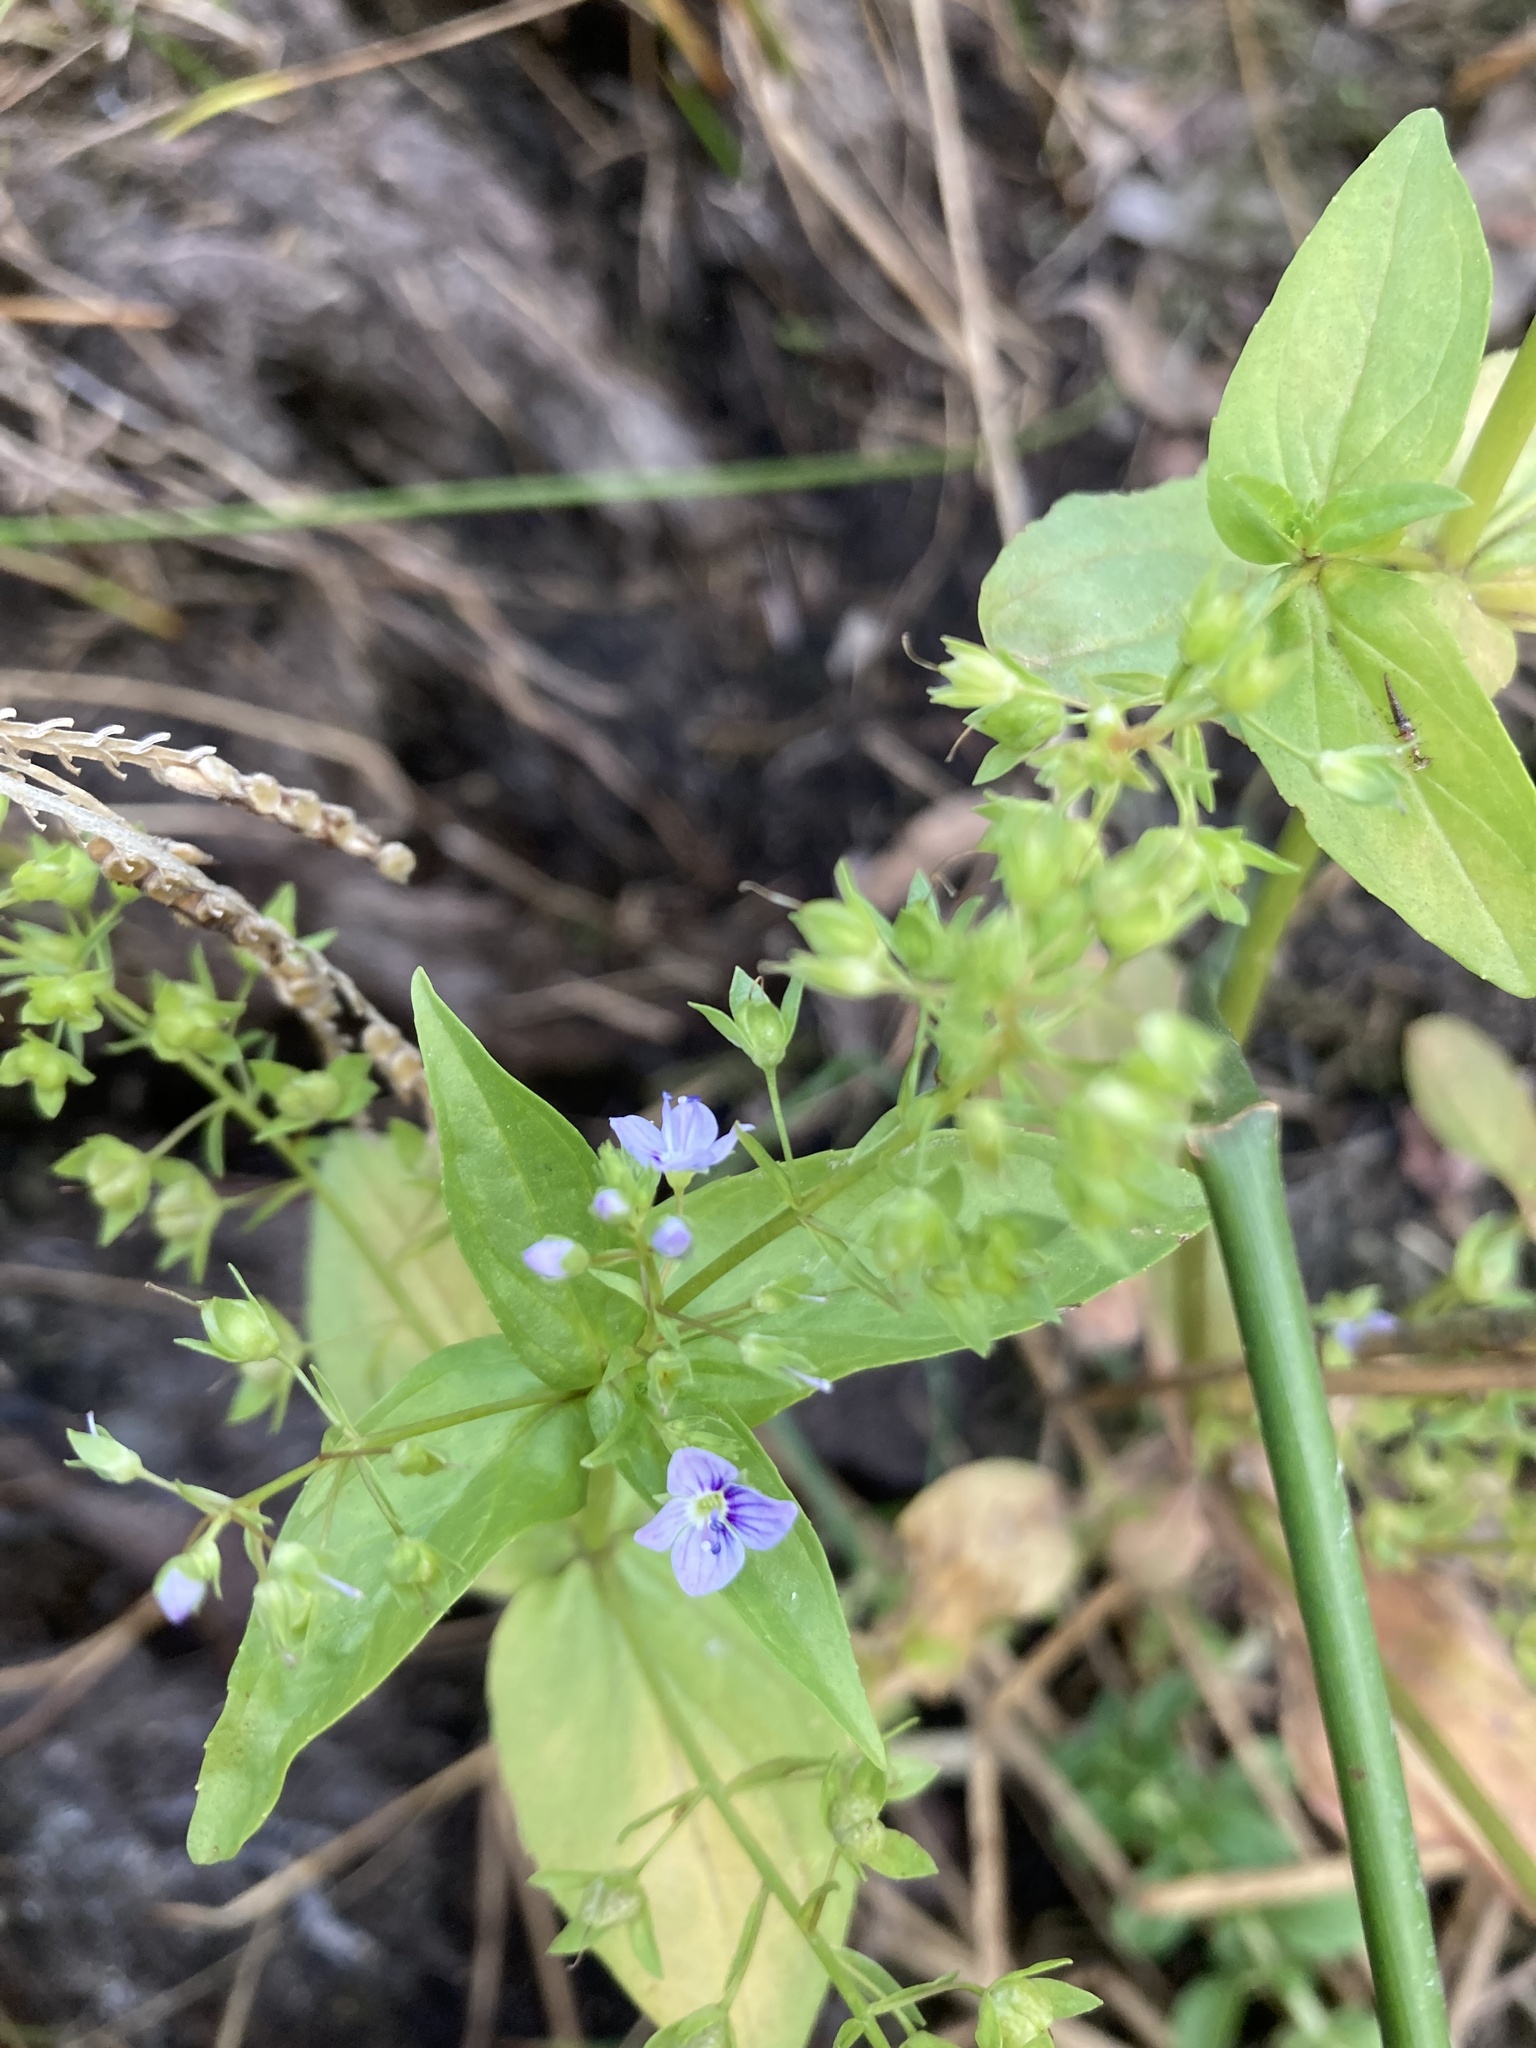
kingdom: Plantae
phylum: Tracheophyta
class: Magnoliopsida
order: Lamiales
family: Plantaginaceae
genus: Veronica
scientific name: Veronica anagallis-aquatica
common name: Water speedwell
